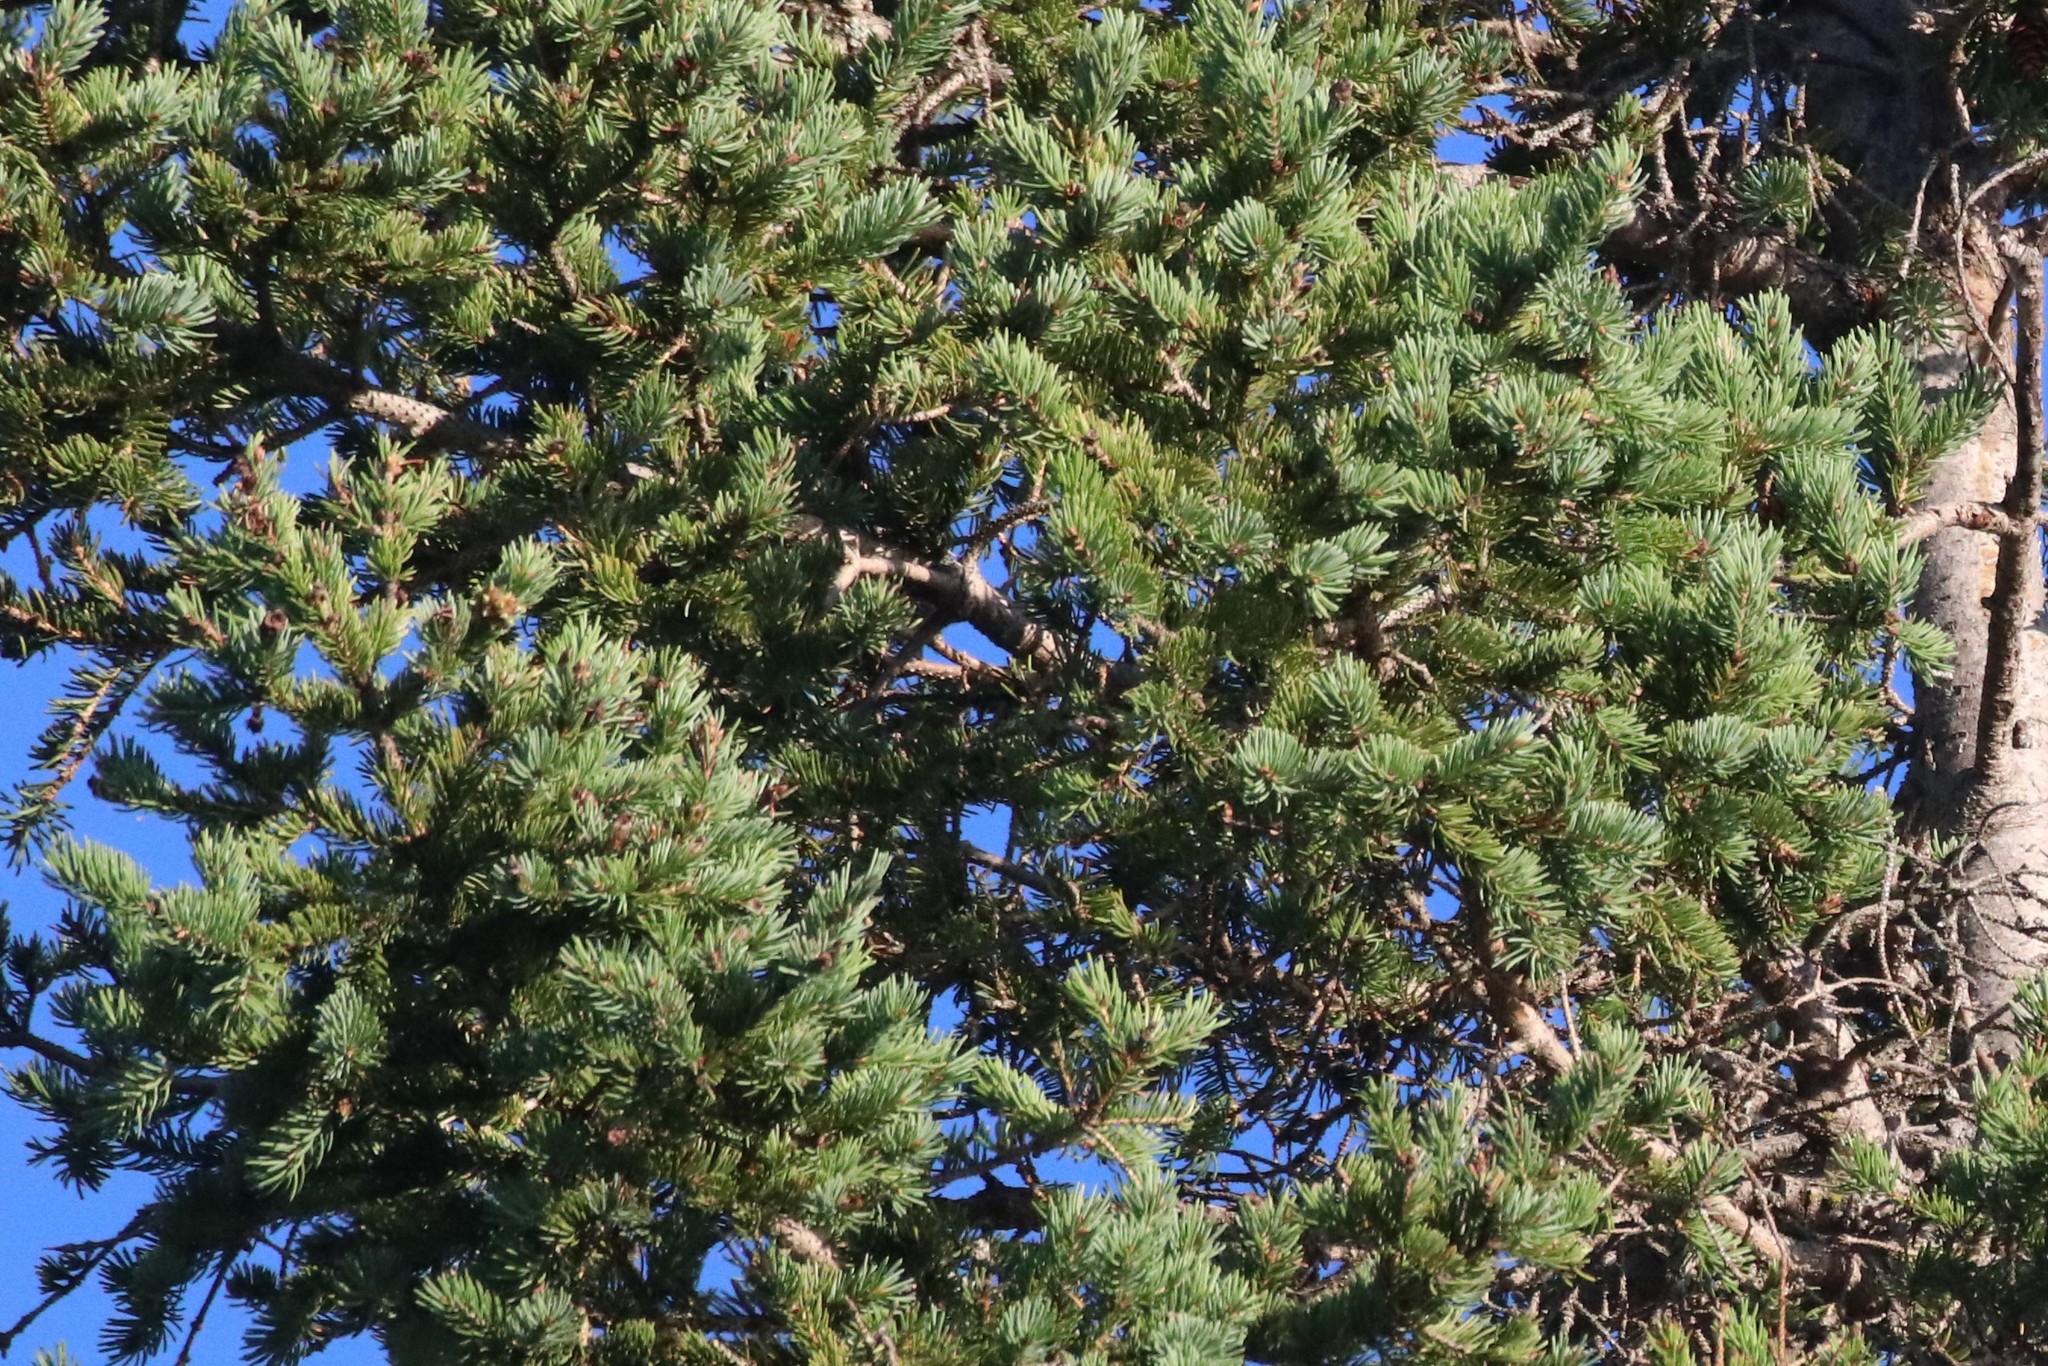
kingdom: Plantae
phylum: Tracheophyta
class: Pinopsida
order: Pinales
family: Pinaceae
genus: Picea
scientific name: Picea glauca
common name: White spruce
